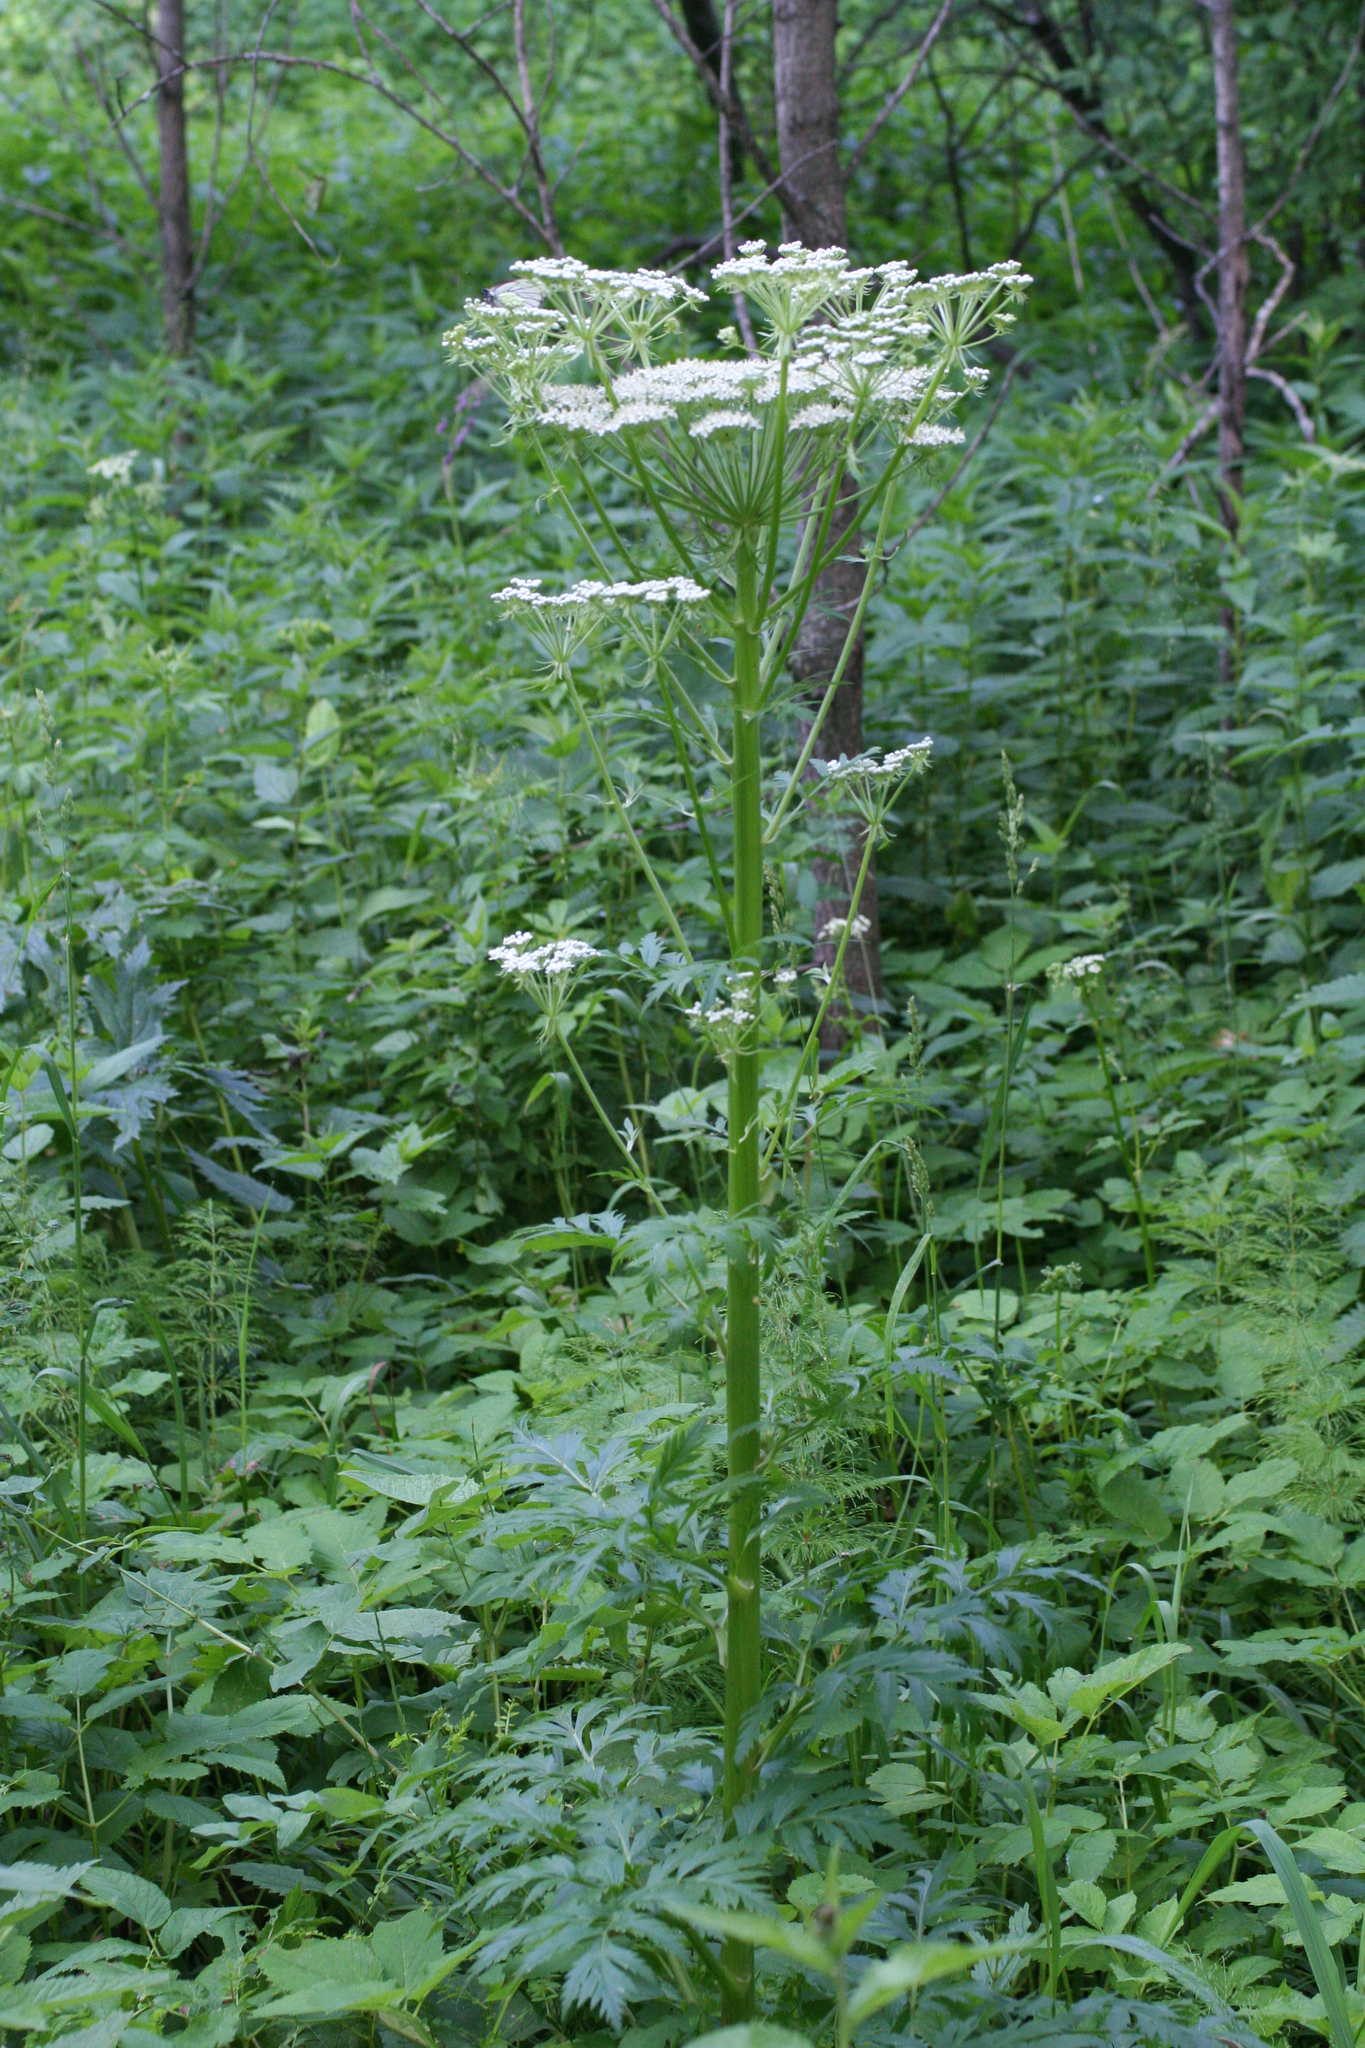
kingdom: Plantae
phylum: Tracheophyta
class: Magnoliopsida
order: Apiales
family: Apiaceae
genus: Pleurospermum
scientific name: Pleurospermum uralense
